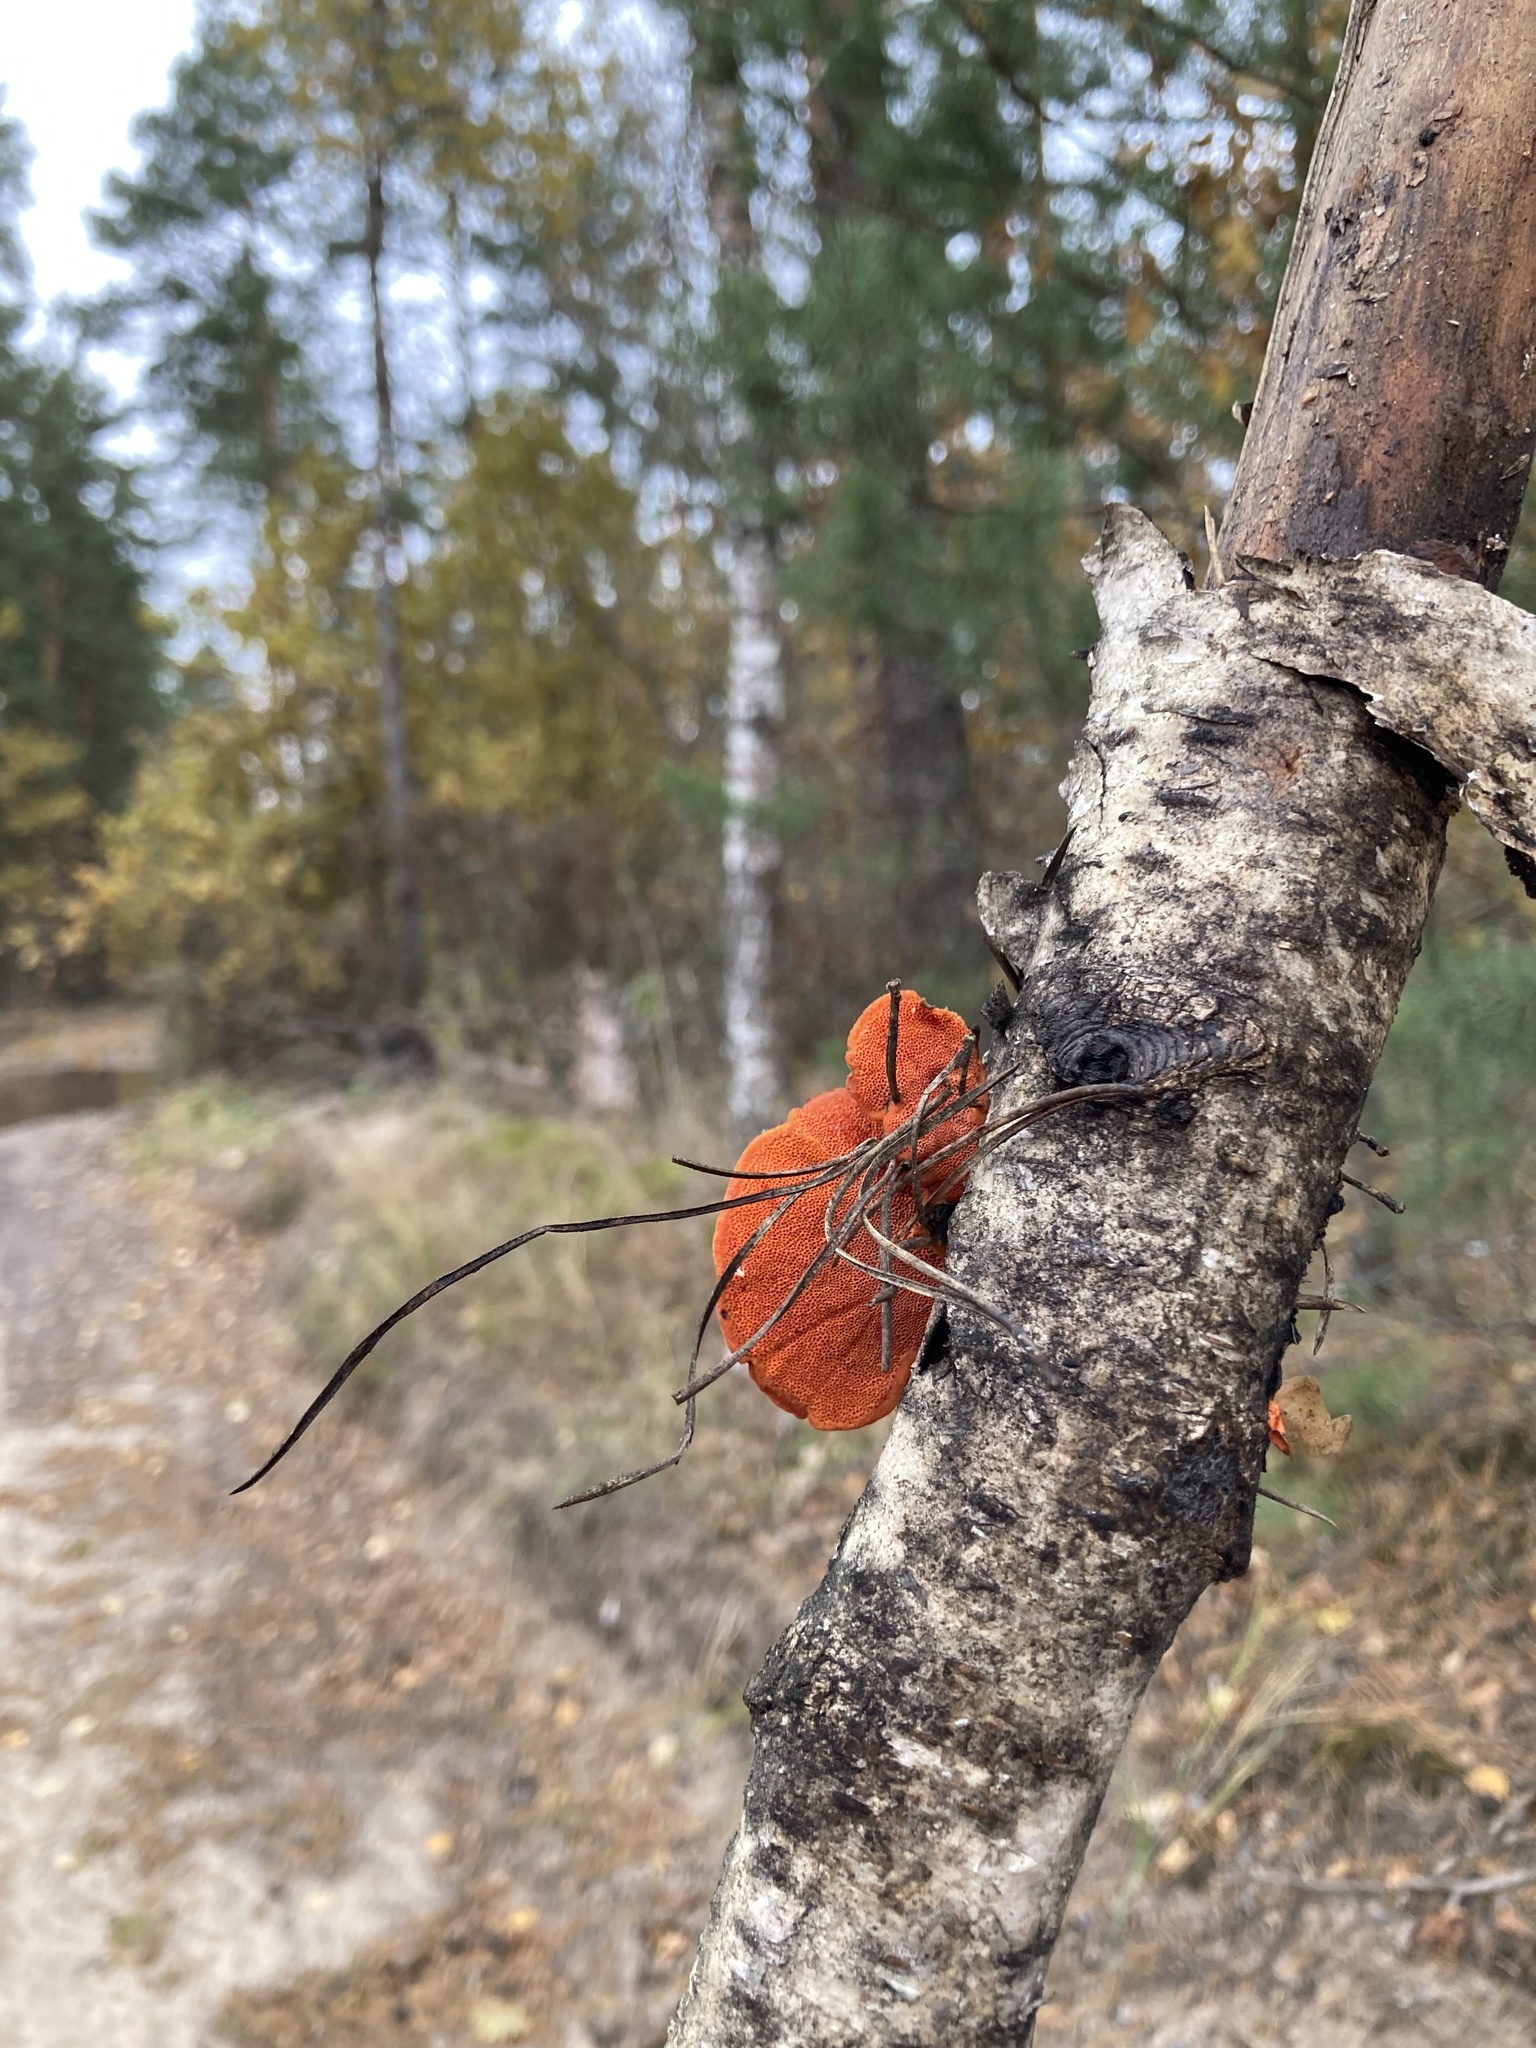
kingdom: Fungi
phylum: Basidiomycota
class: Agaricomycetes
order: Polyporales
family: Polyporaceae
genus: Trametes
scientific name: Trametes cinnabarina
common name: Northern cinnabar polypore
